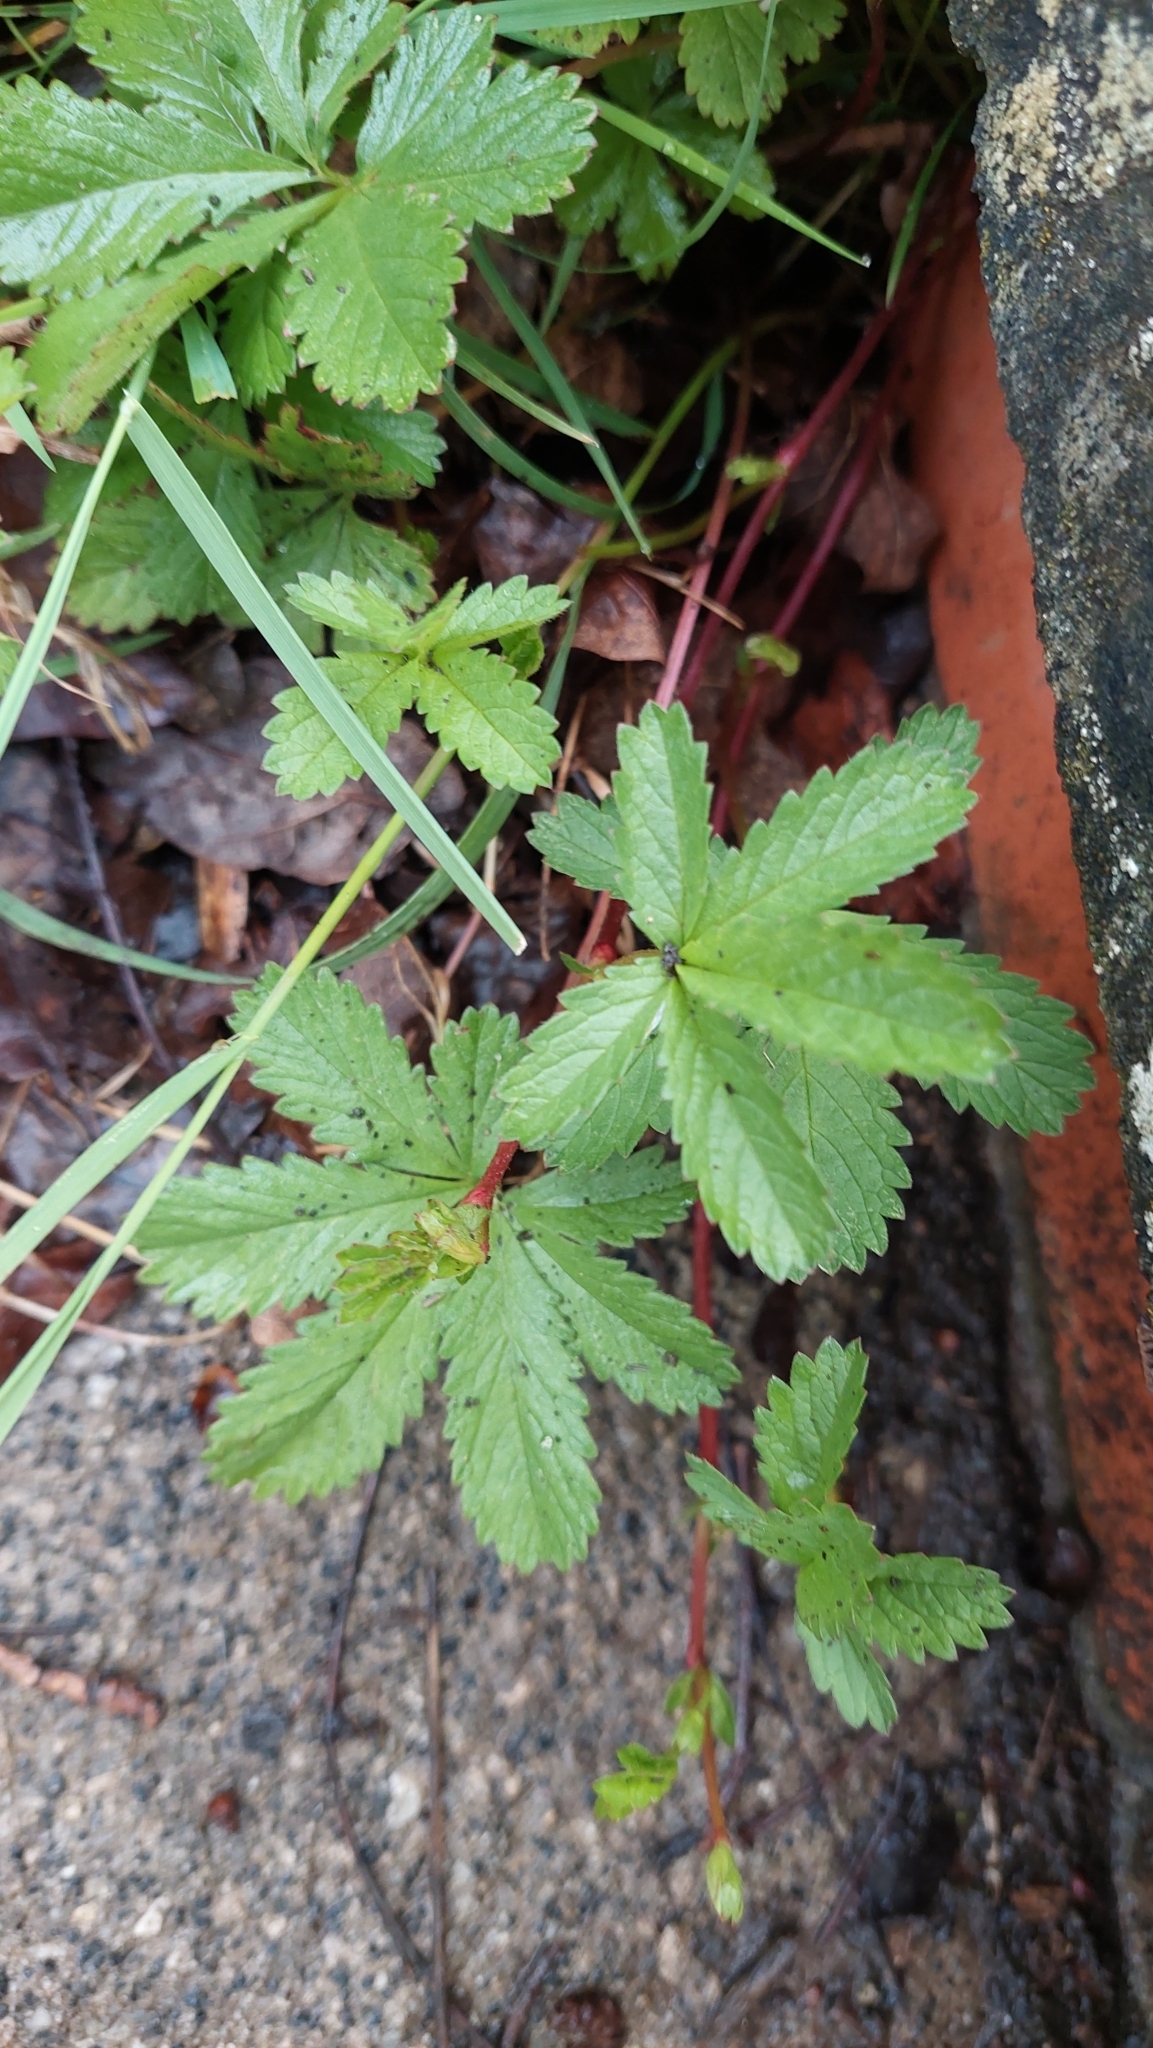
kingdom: Plantae
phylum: Tracheophyta
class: Magnoliopsida
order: Rosales
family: Rosaceae
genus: Potentilla
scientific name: Potentilla reptans
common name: Creeping cinquefoil
